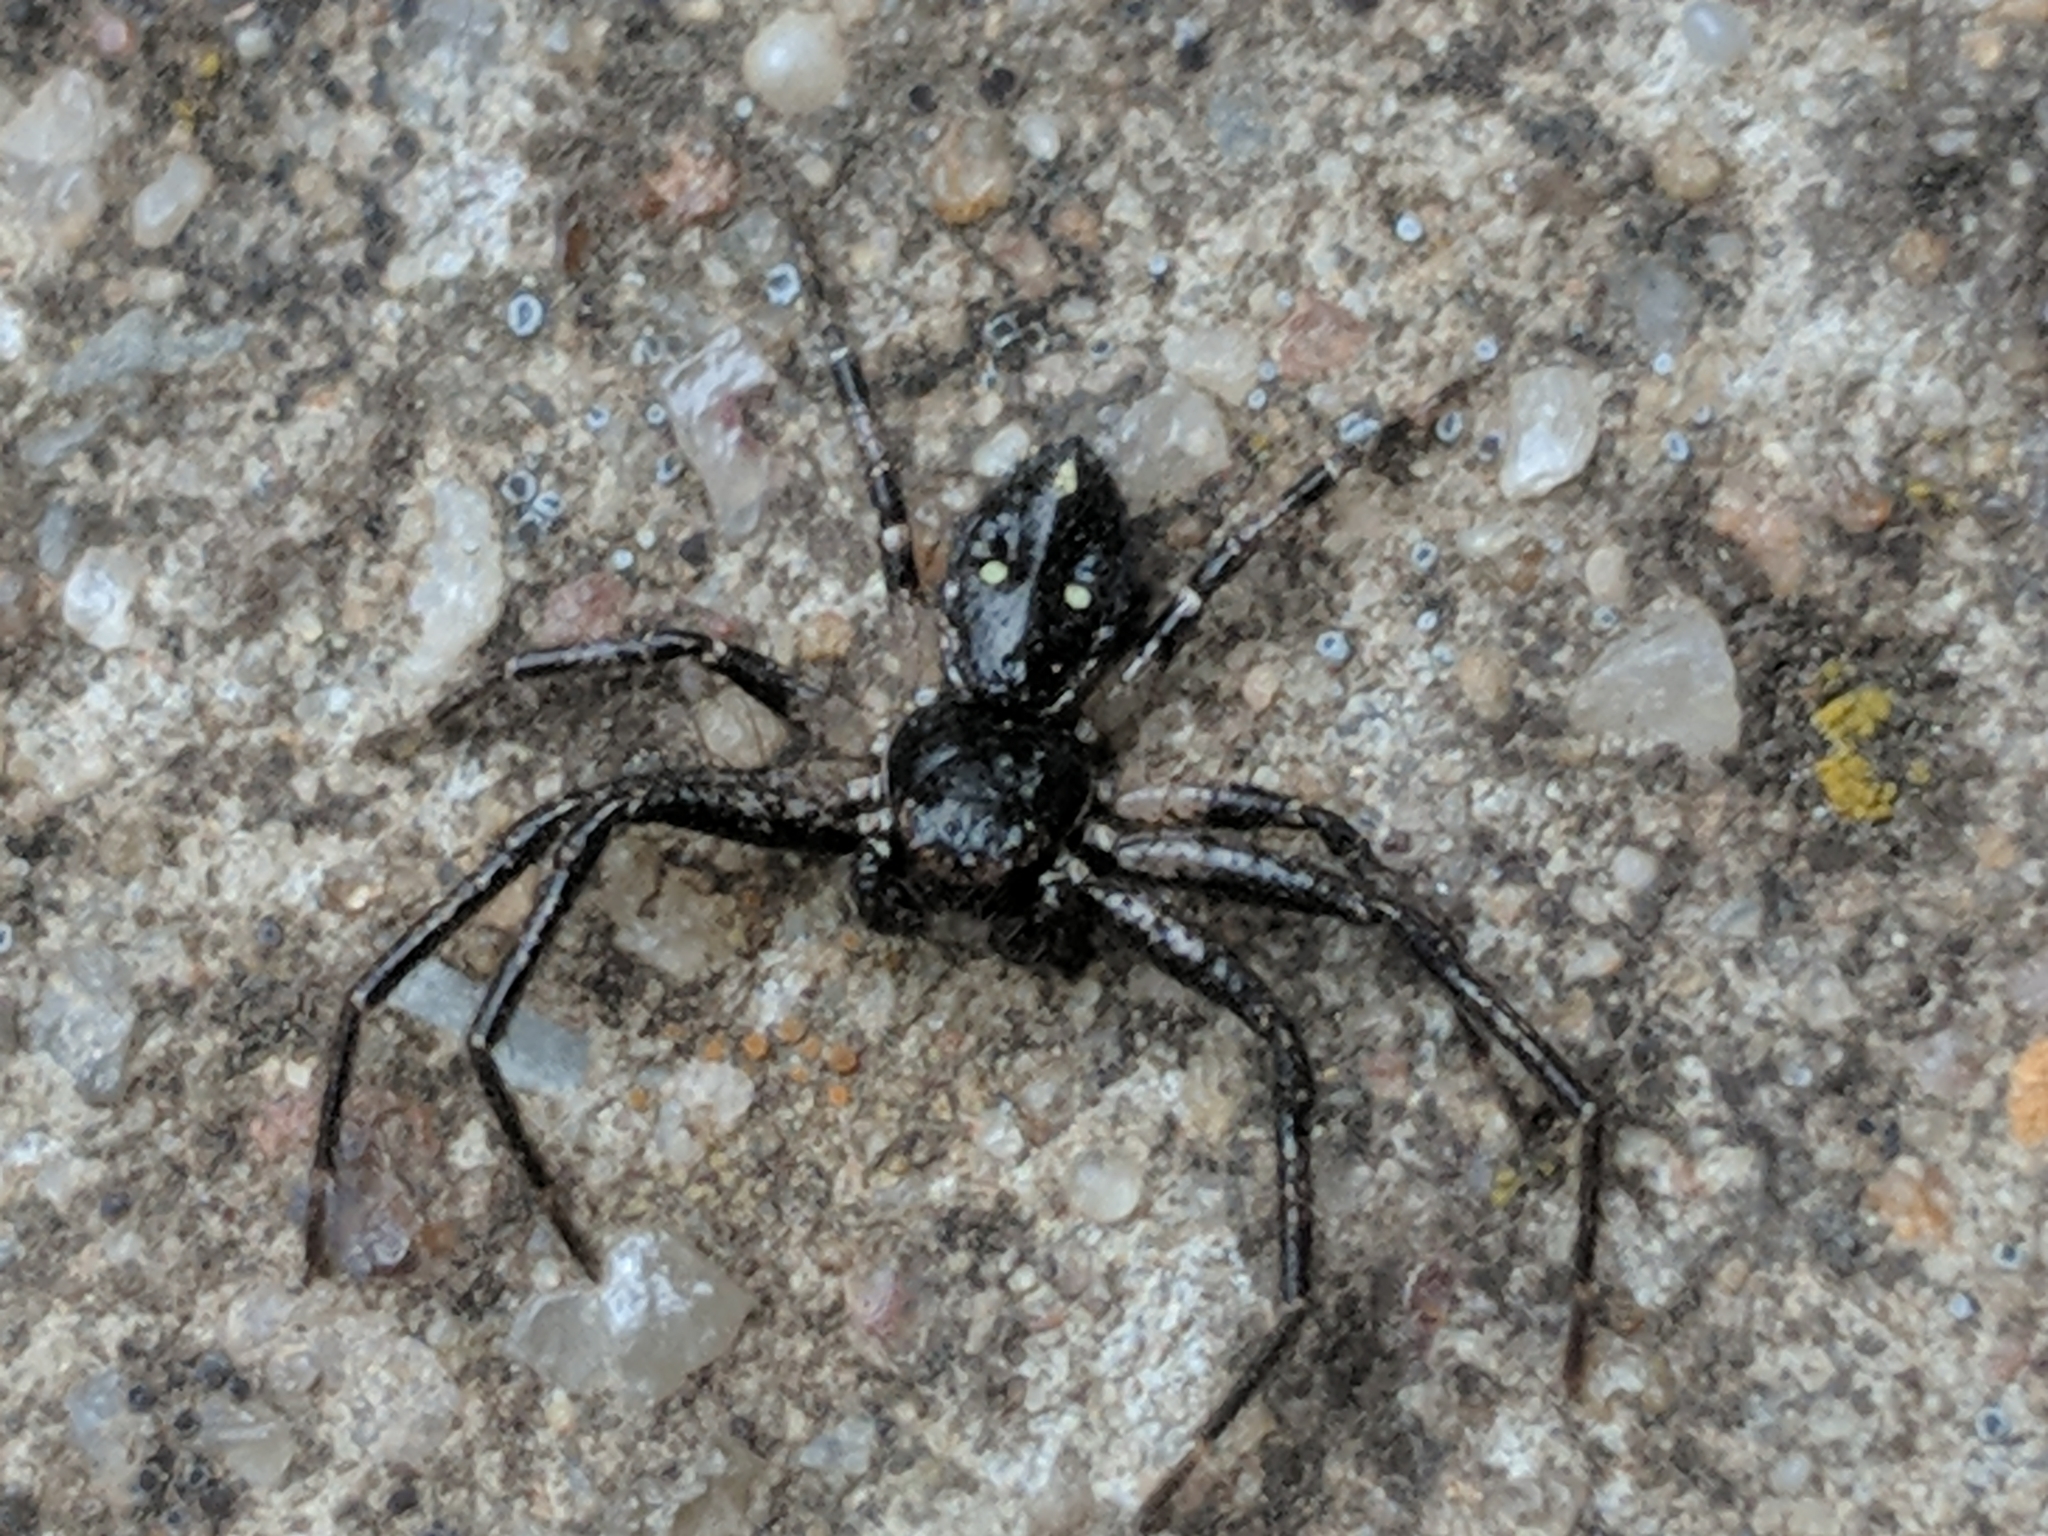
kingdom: Animalia
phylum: Arthropoda
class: Arachnida
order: Araneae
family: Thomisidae
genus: Tharpyna
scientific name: Tharpyna campestrata
